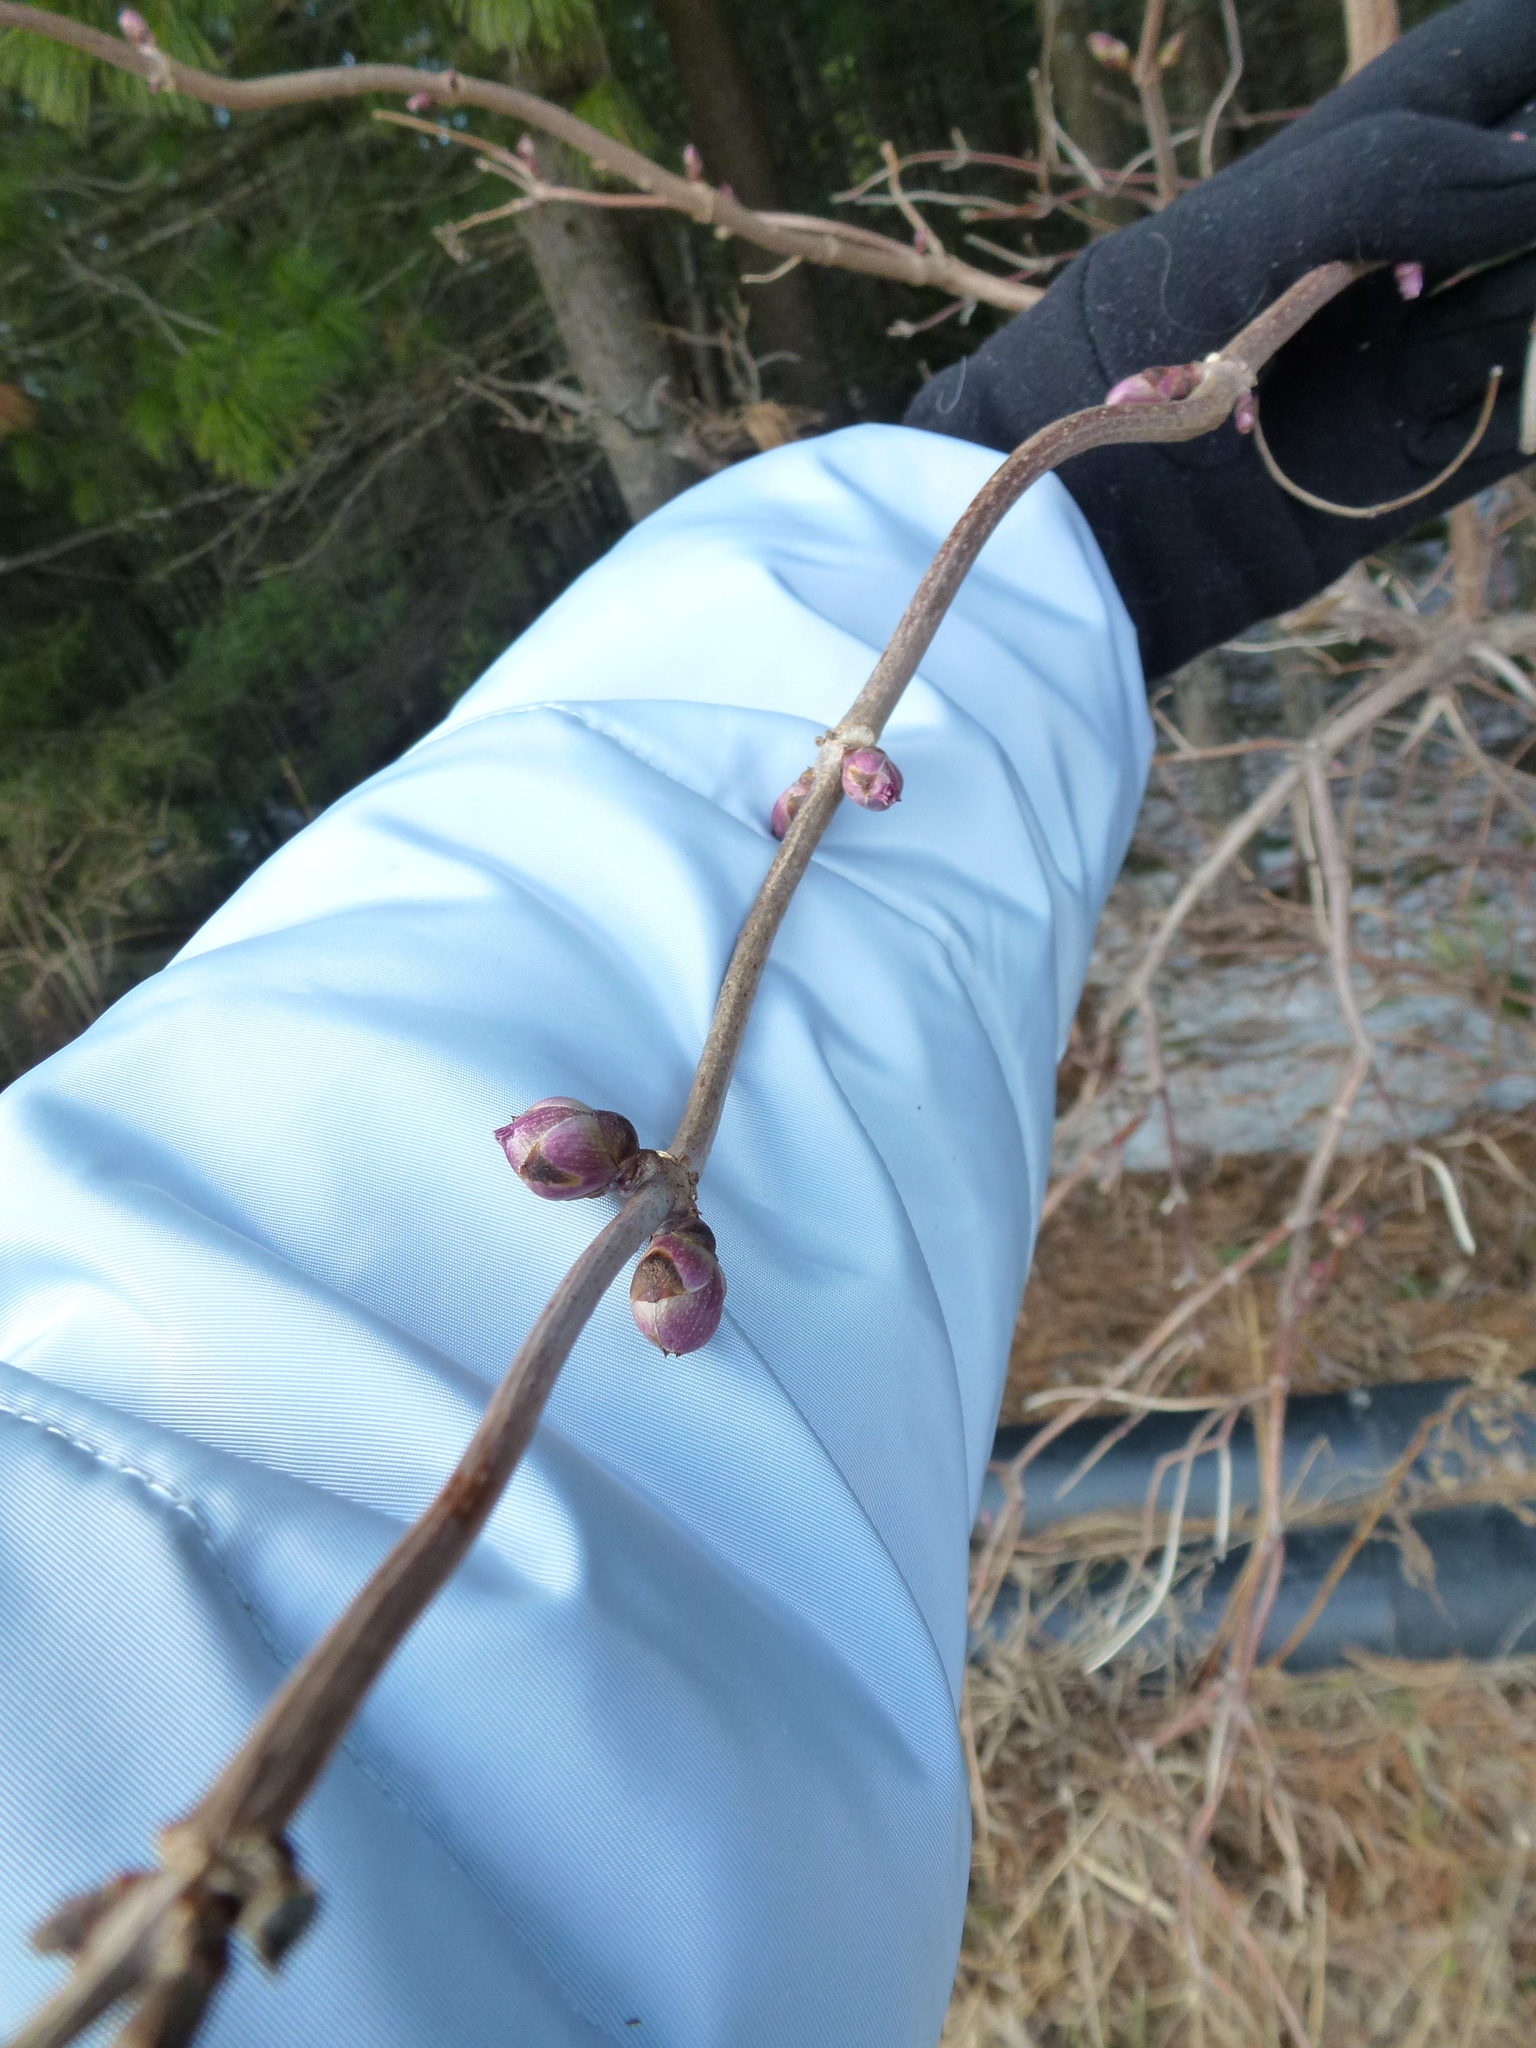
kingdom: Plantae
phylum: Tracheophyta
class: Magnoliopsida
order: Dipsacales
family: Viburnaceae
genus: Sambucus
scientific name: Sambucus sibirica
